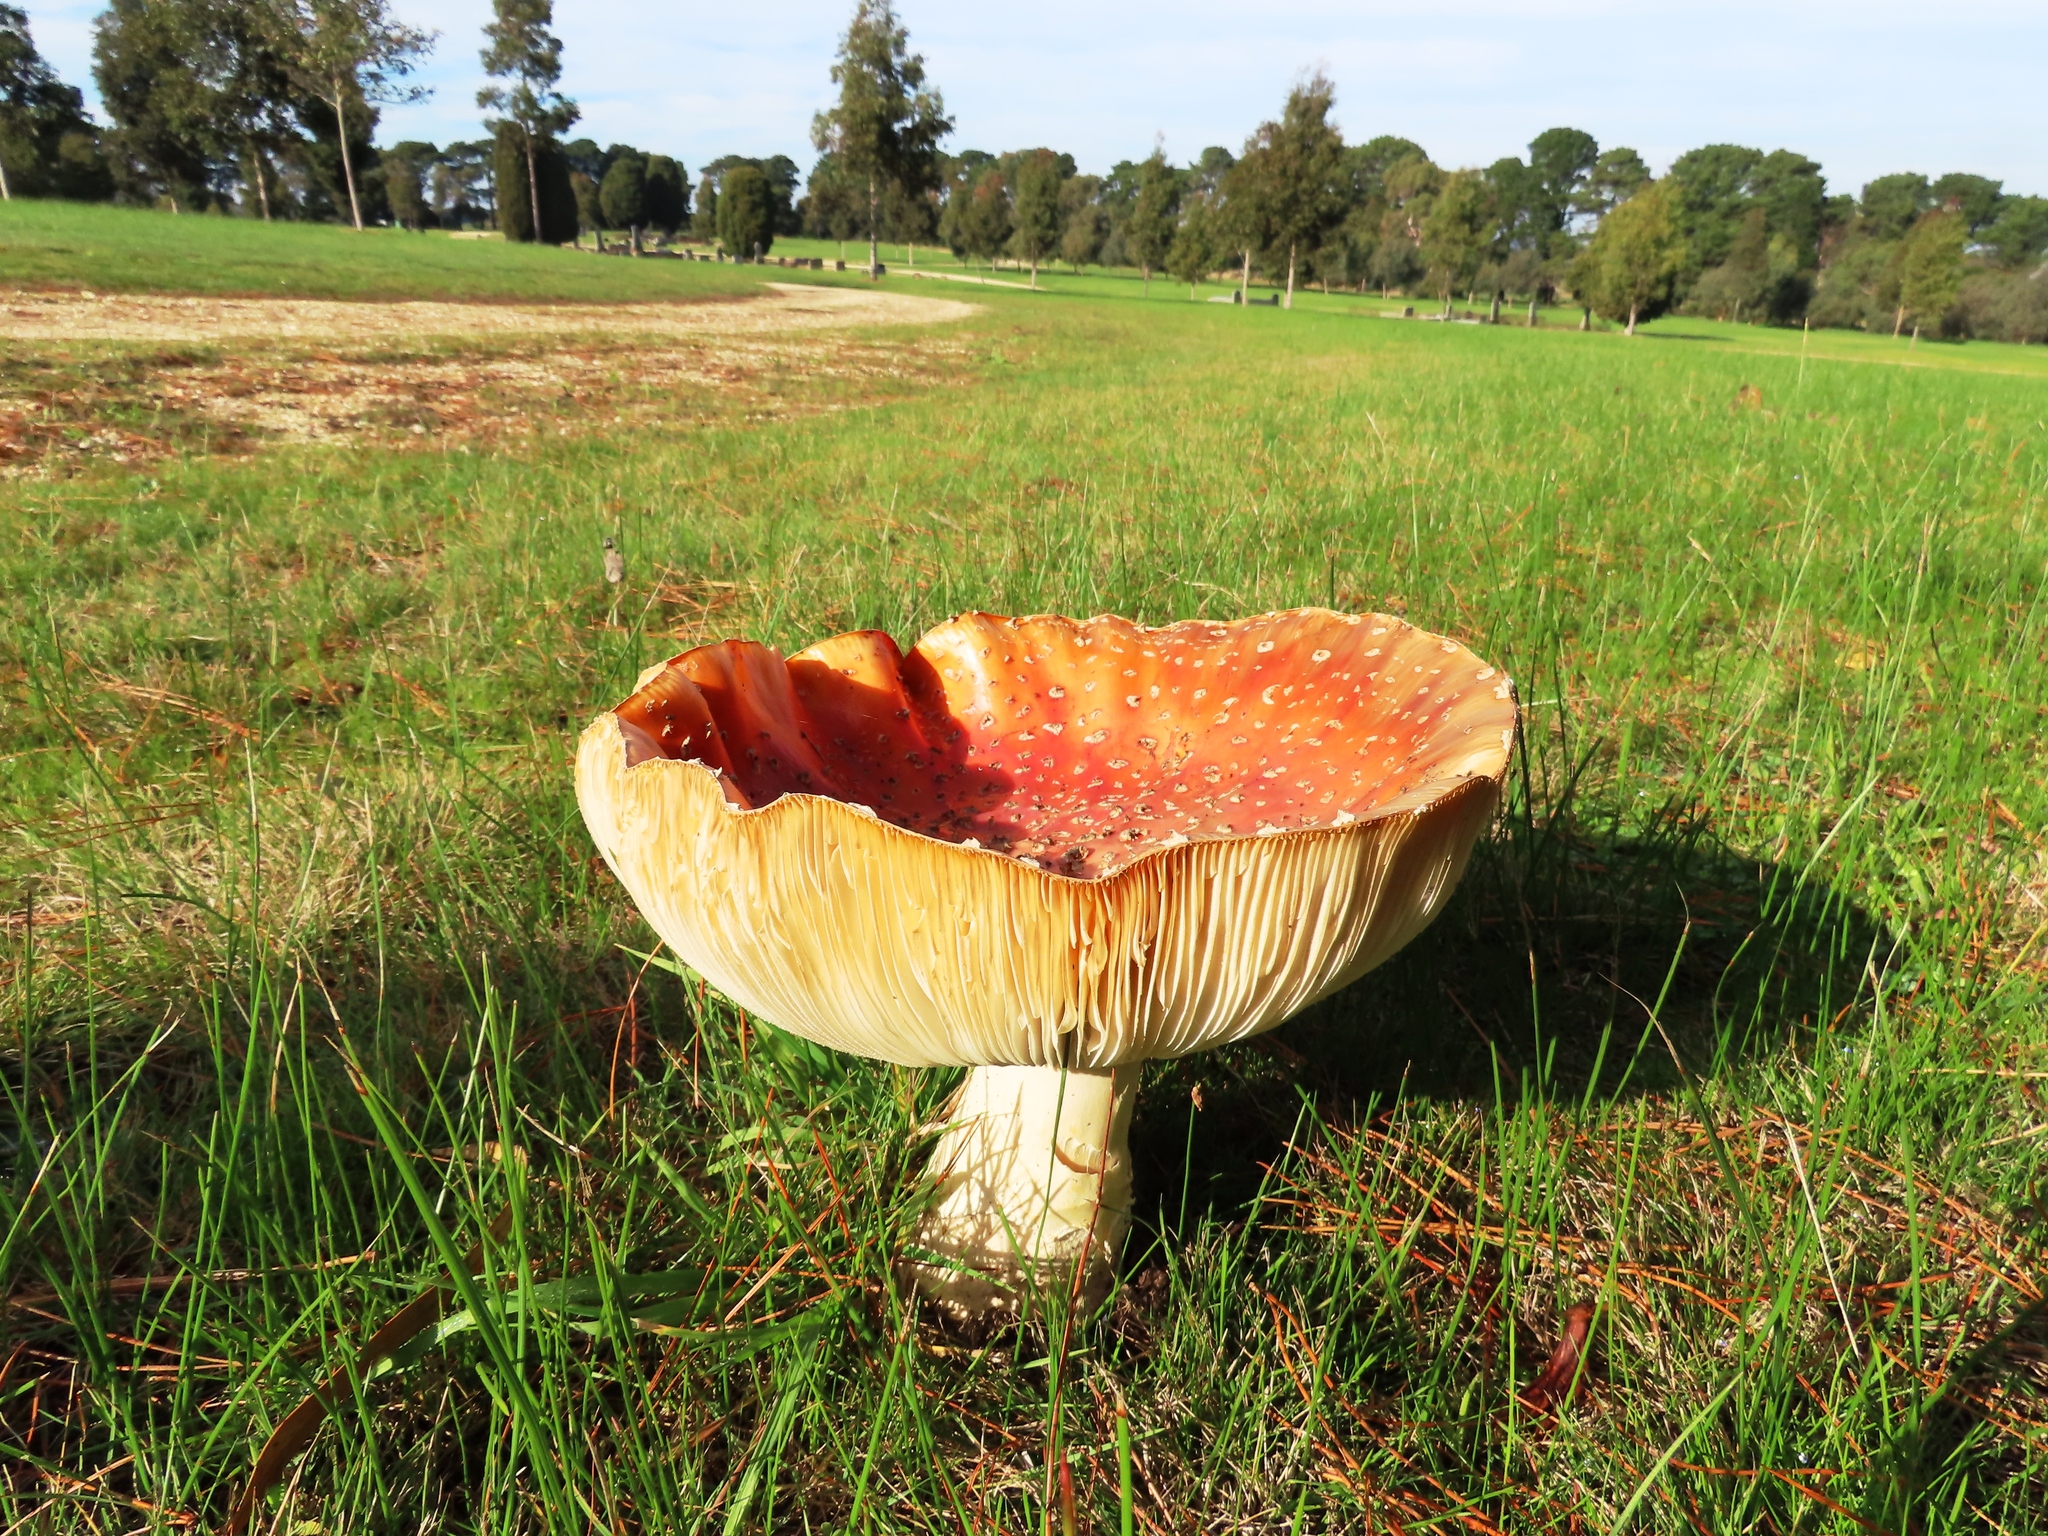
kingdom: Fungi
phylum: Basidiomycota
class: Agaricomycetes
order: Agaricales
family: Amanitaceae
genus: Amanita
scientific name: Amanita muscaria
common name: Fly agaric
